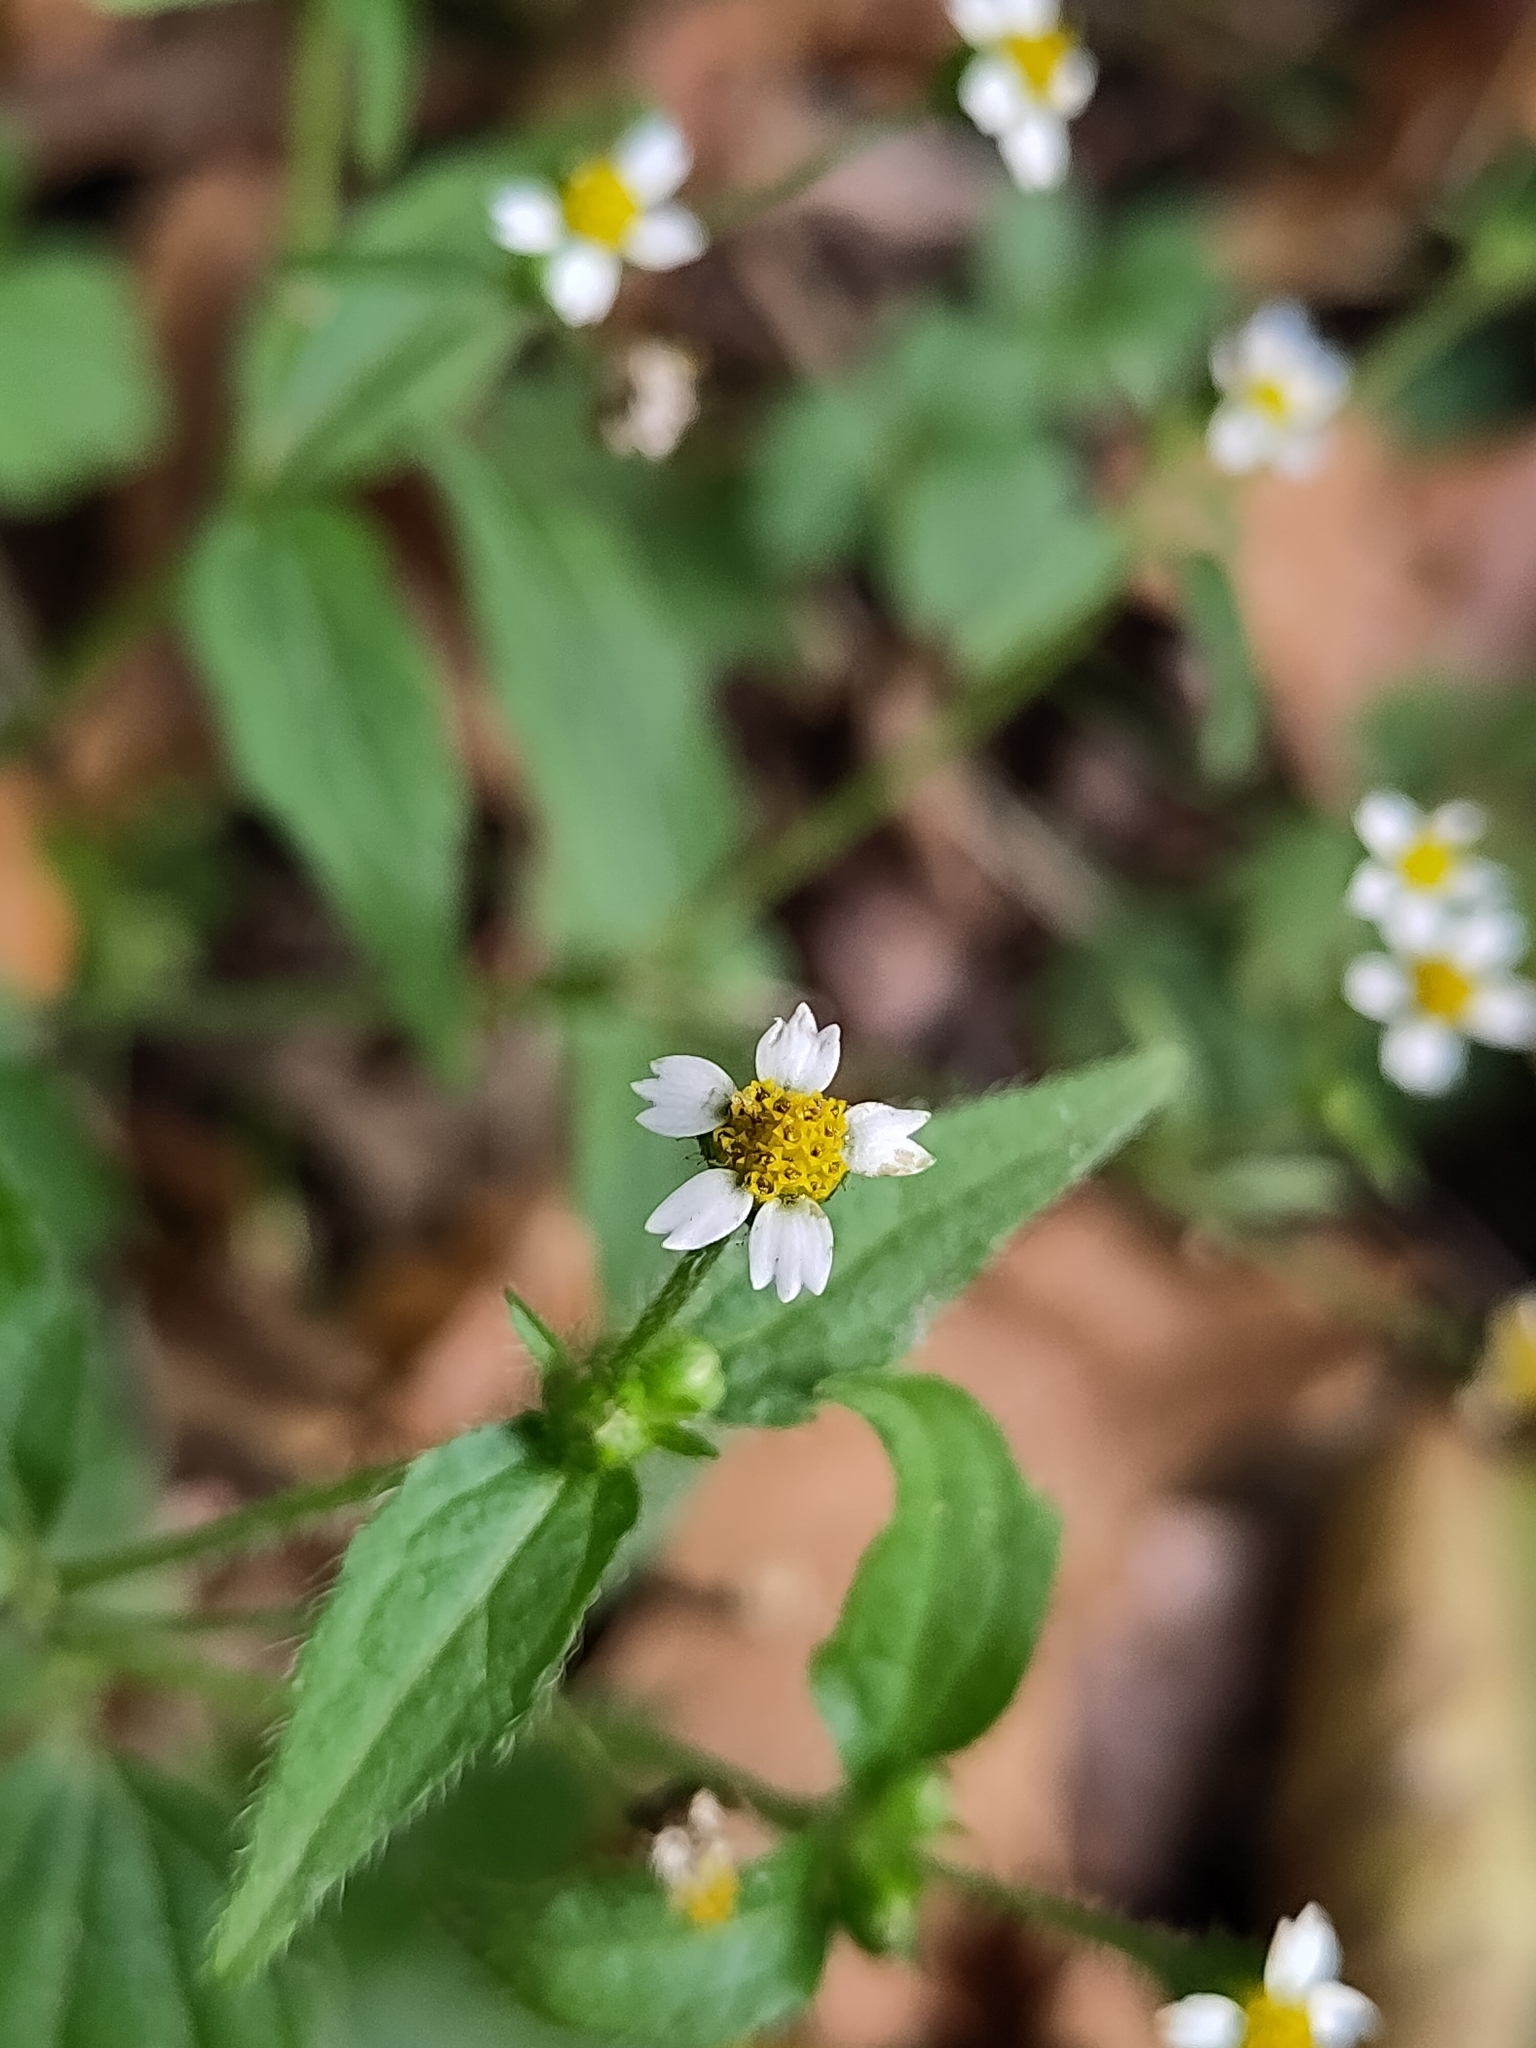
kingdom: Plantae
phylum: Tracheophyta
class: Magnoliopsida
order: Asterales
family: Asteraceae
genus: Galinsoga
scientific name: Galinsoga quadriradiata
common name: Shaggy soldier
